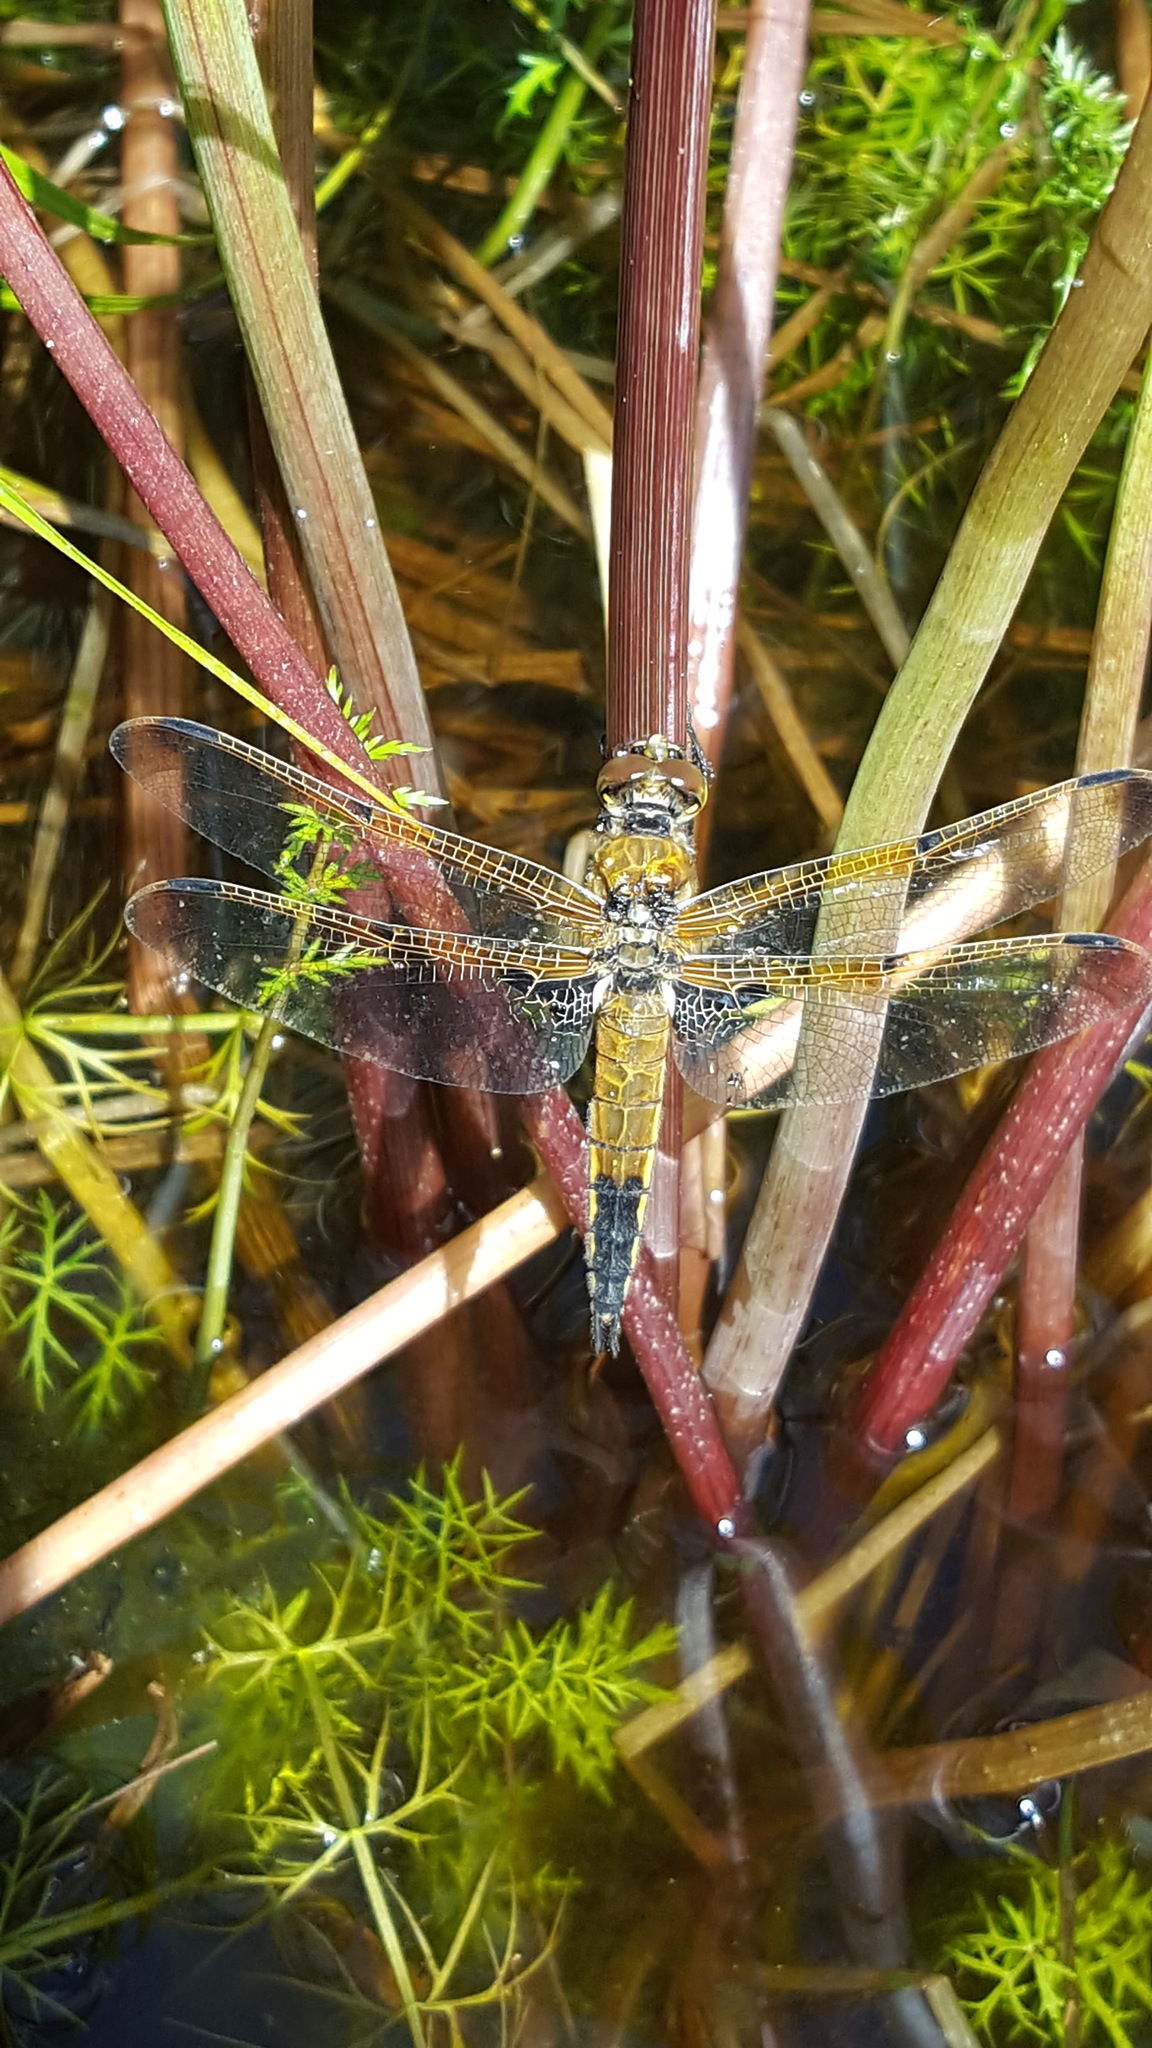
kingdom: Animalia
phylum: Arthropoda
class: Insecta
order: Odonata
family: Libellulidae
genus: Libellula
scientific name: Libellula quadrimaculata
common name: Four-spotted chaser
